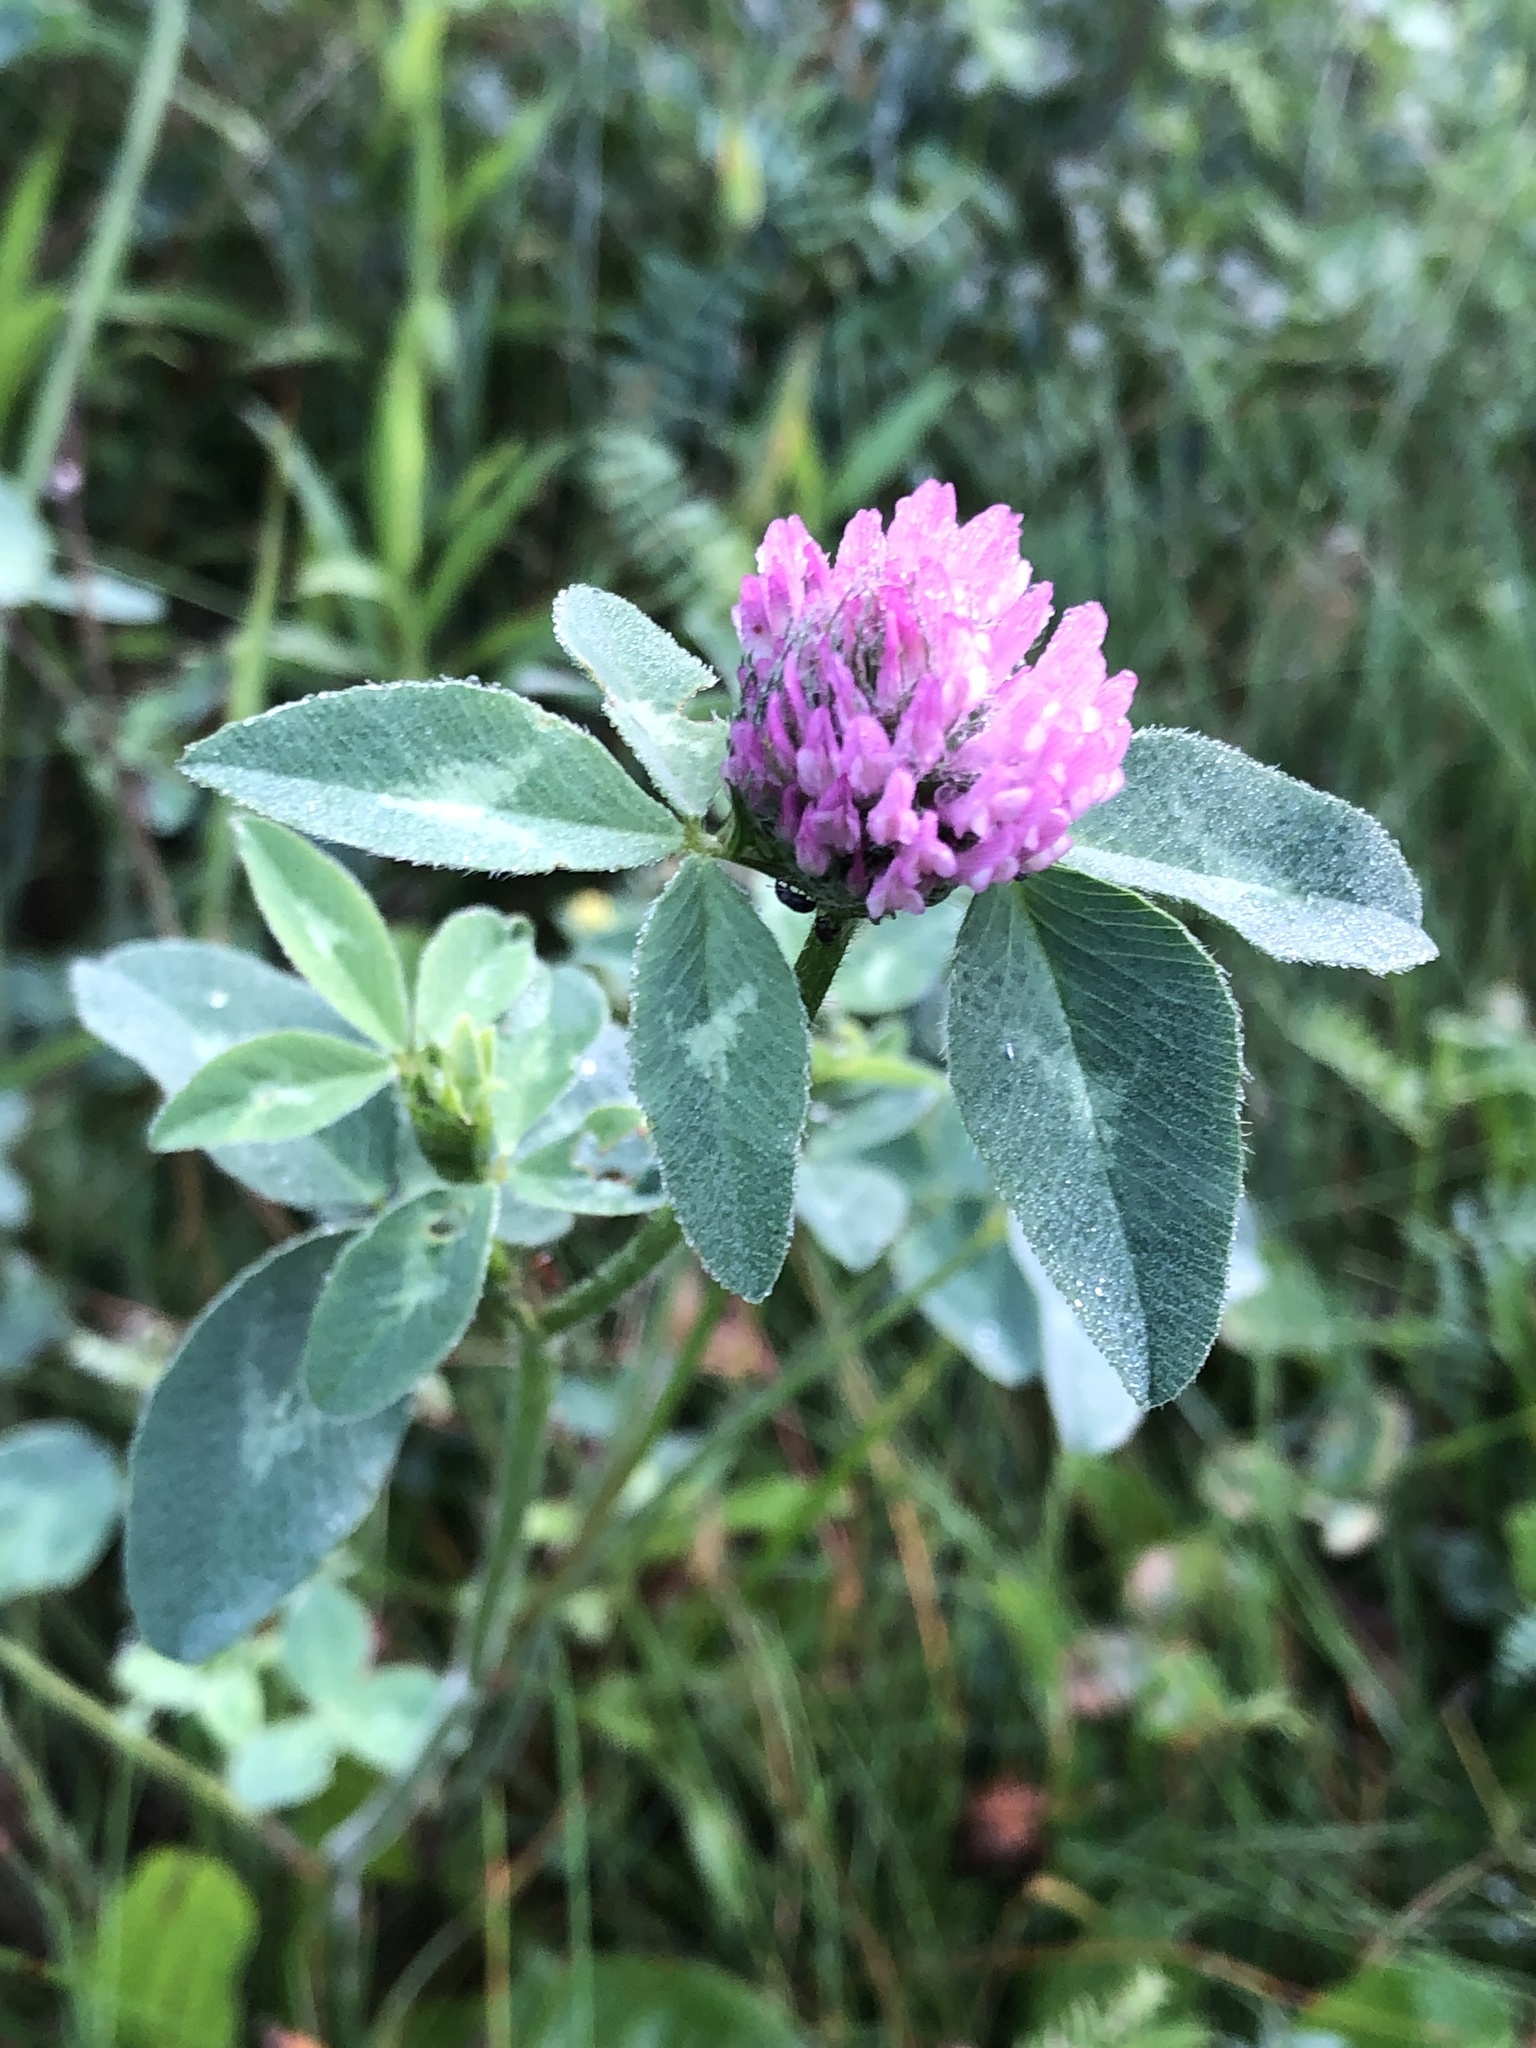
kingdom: Plantae
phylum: Tracheophyta
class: Magnoliopsida
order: Fabales
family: Fabaceae
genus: Trifolium
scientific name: Trifolium pratense
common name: Red clover
